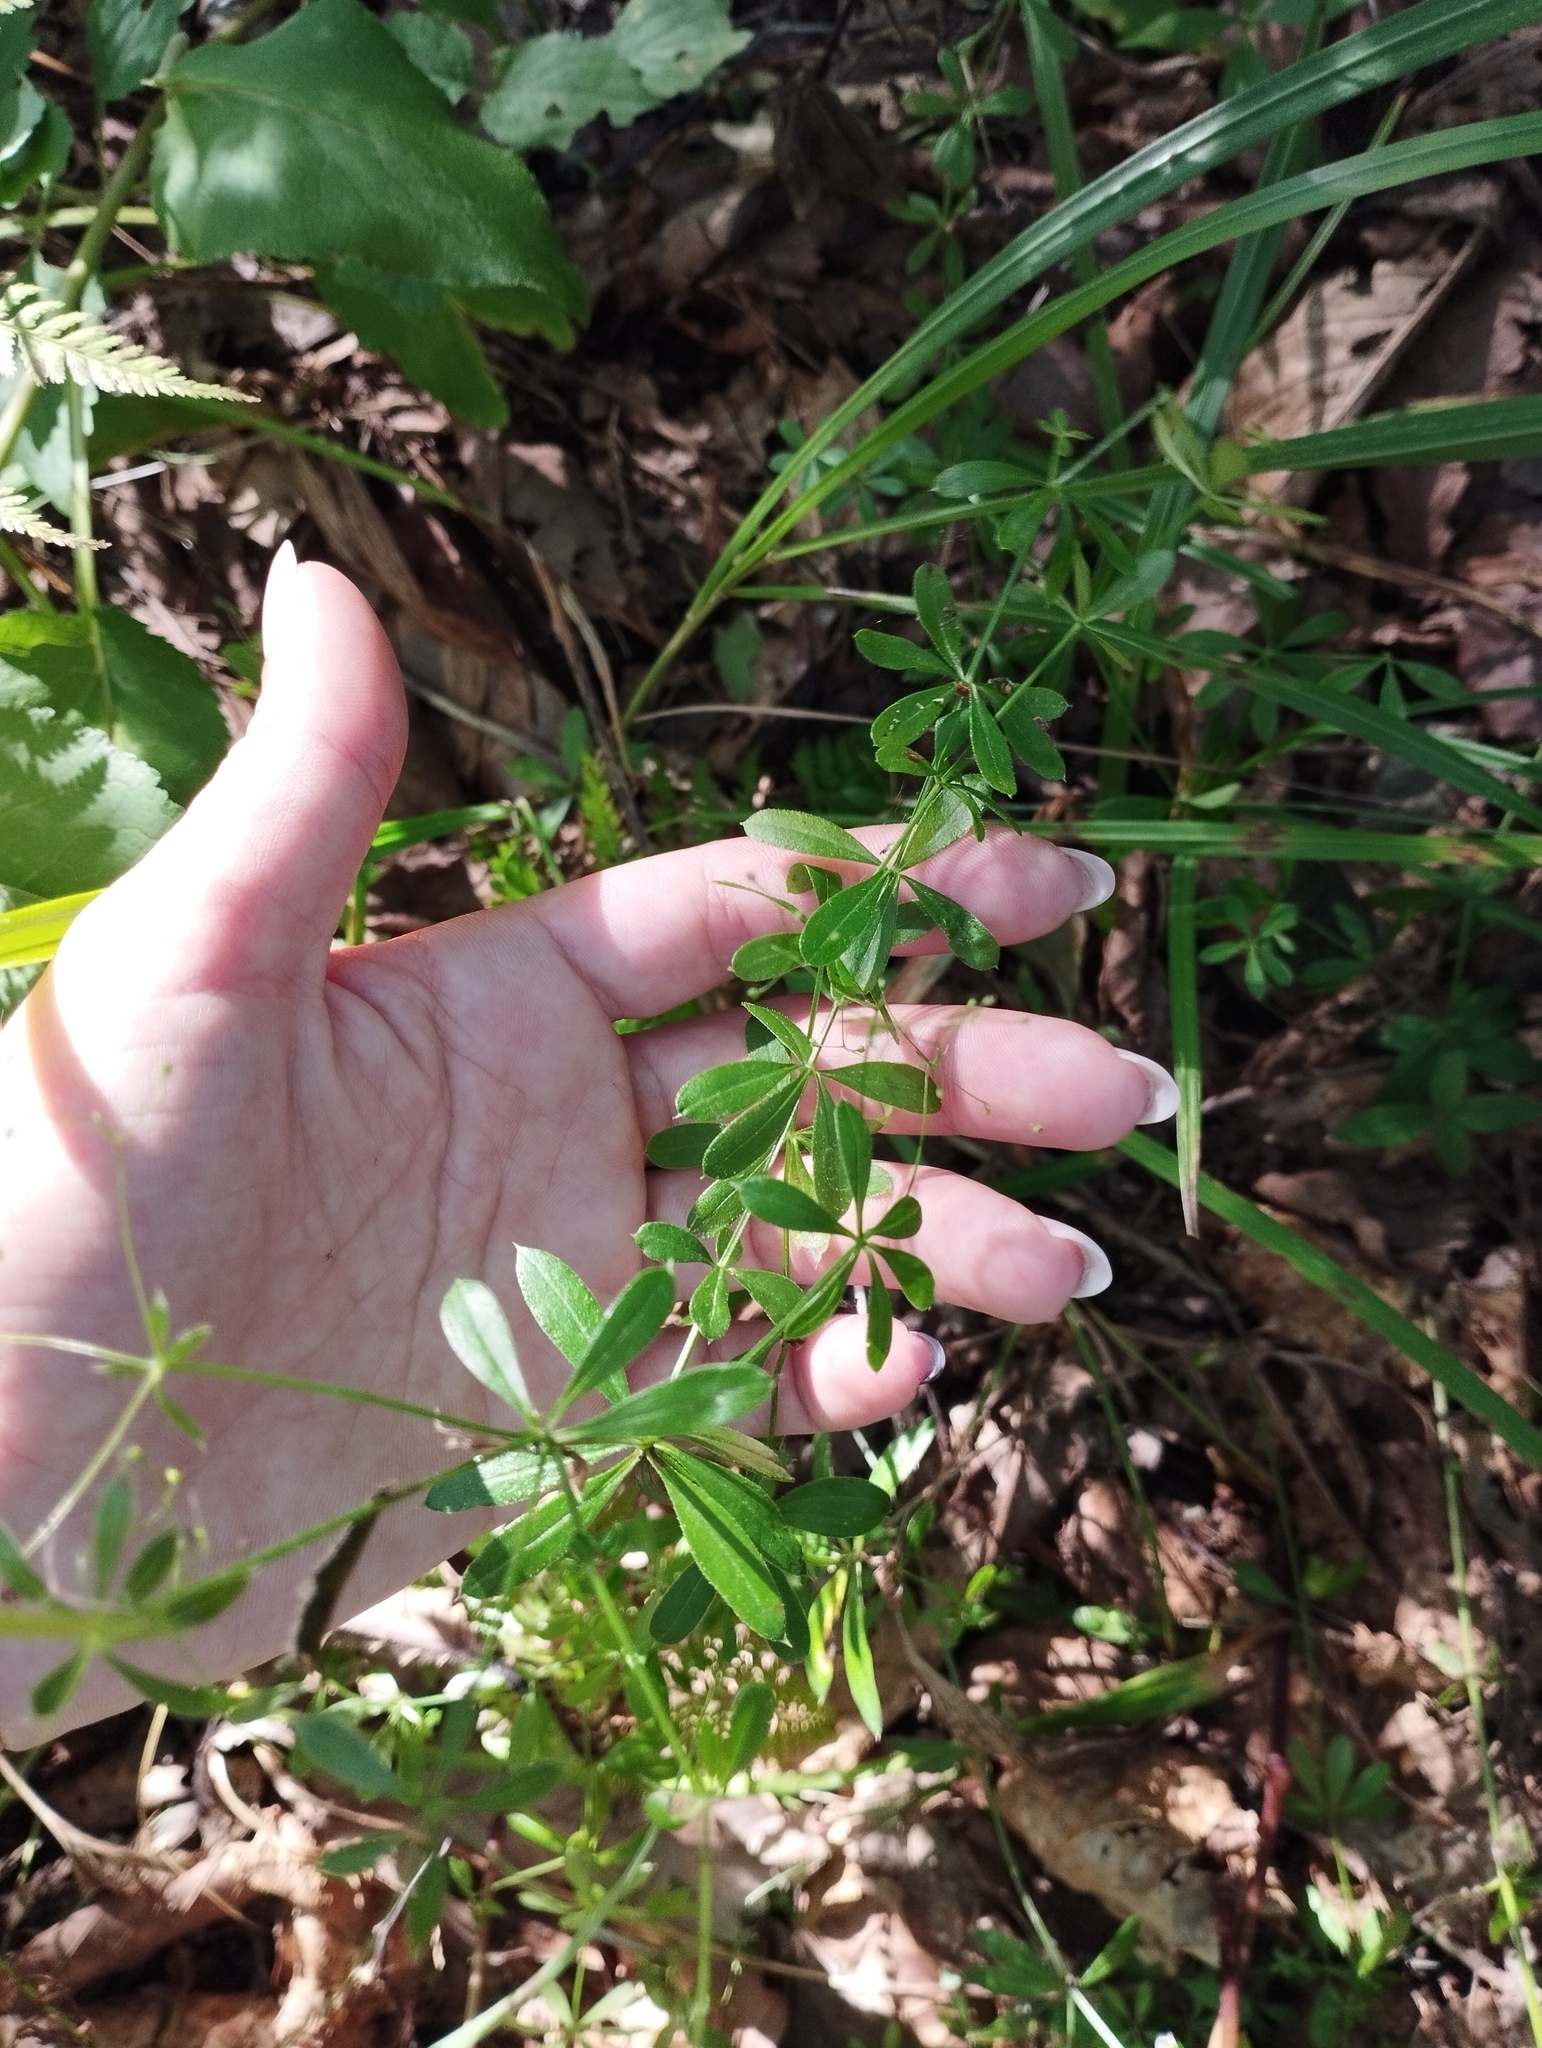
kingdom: Plantae
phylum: Tracheophyta
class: Magnoliopsida
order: Gentianales
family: Rubiaceae
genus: Galium
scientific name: Galium dahuricum
